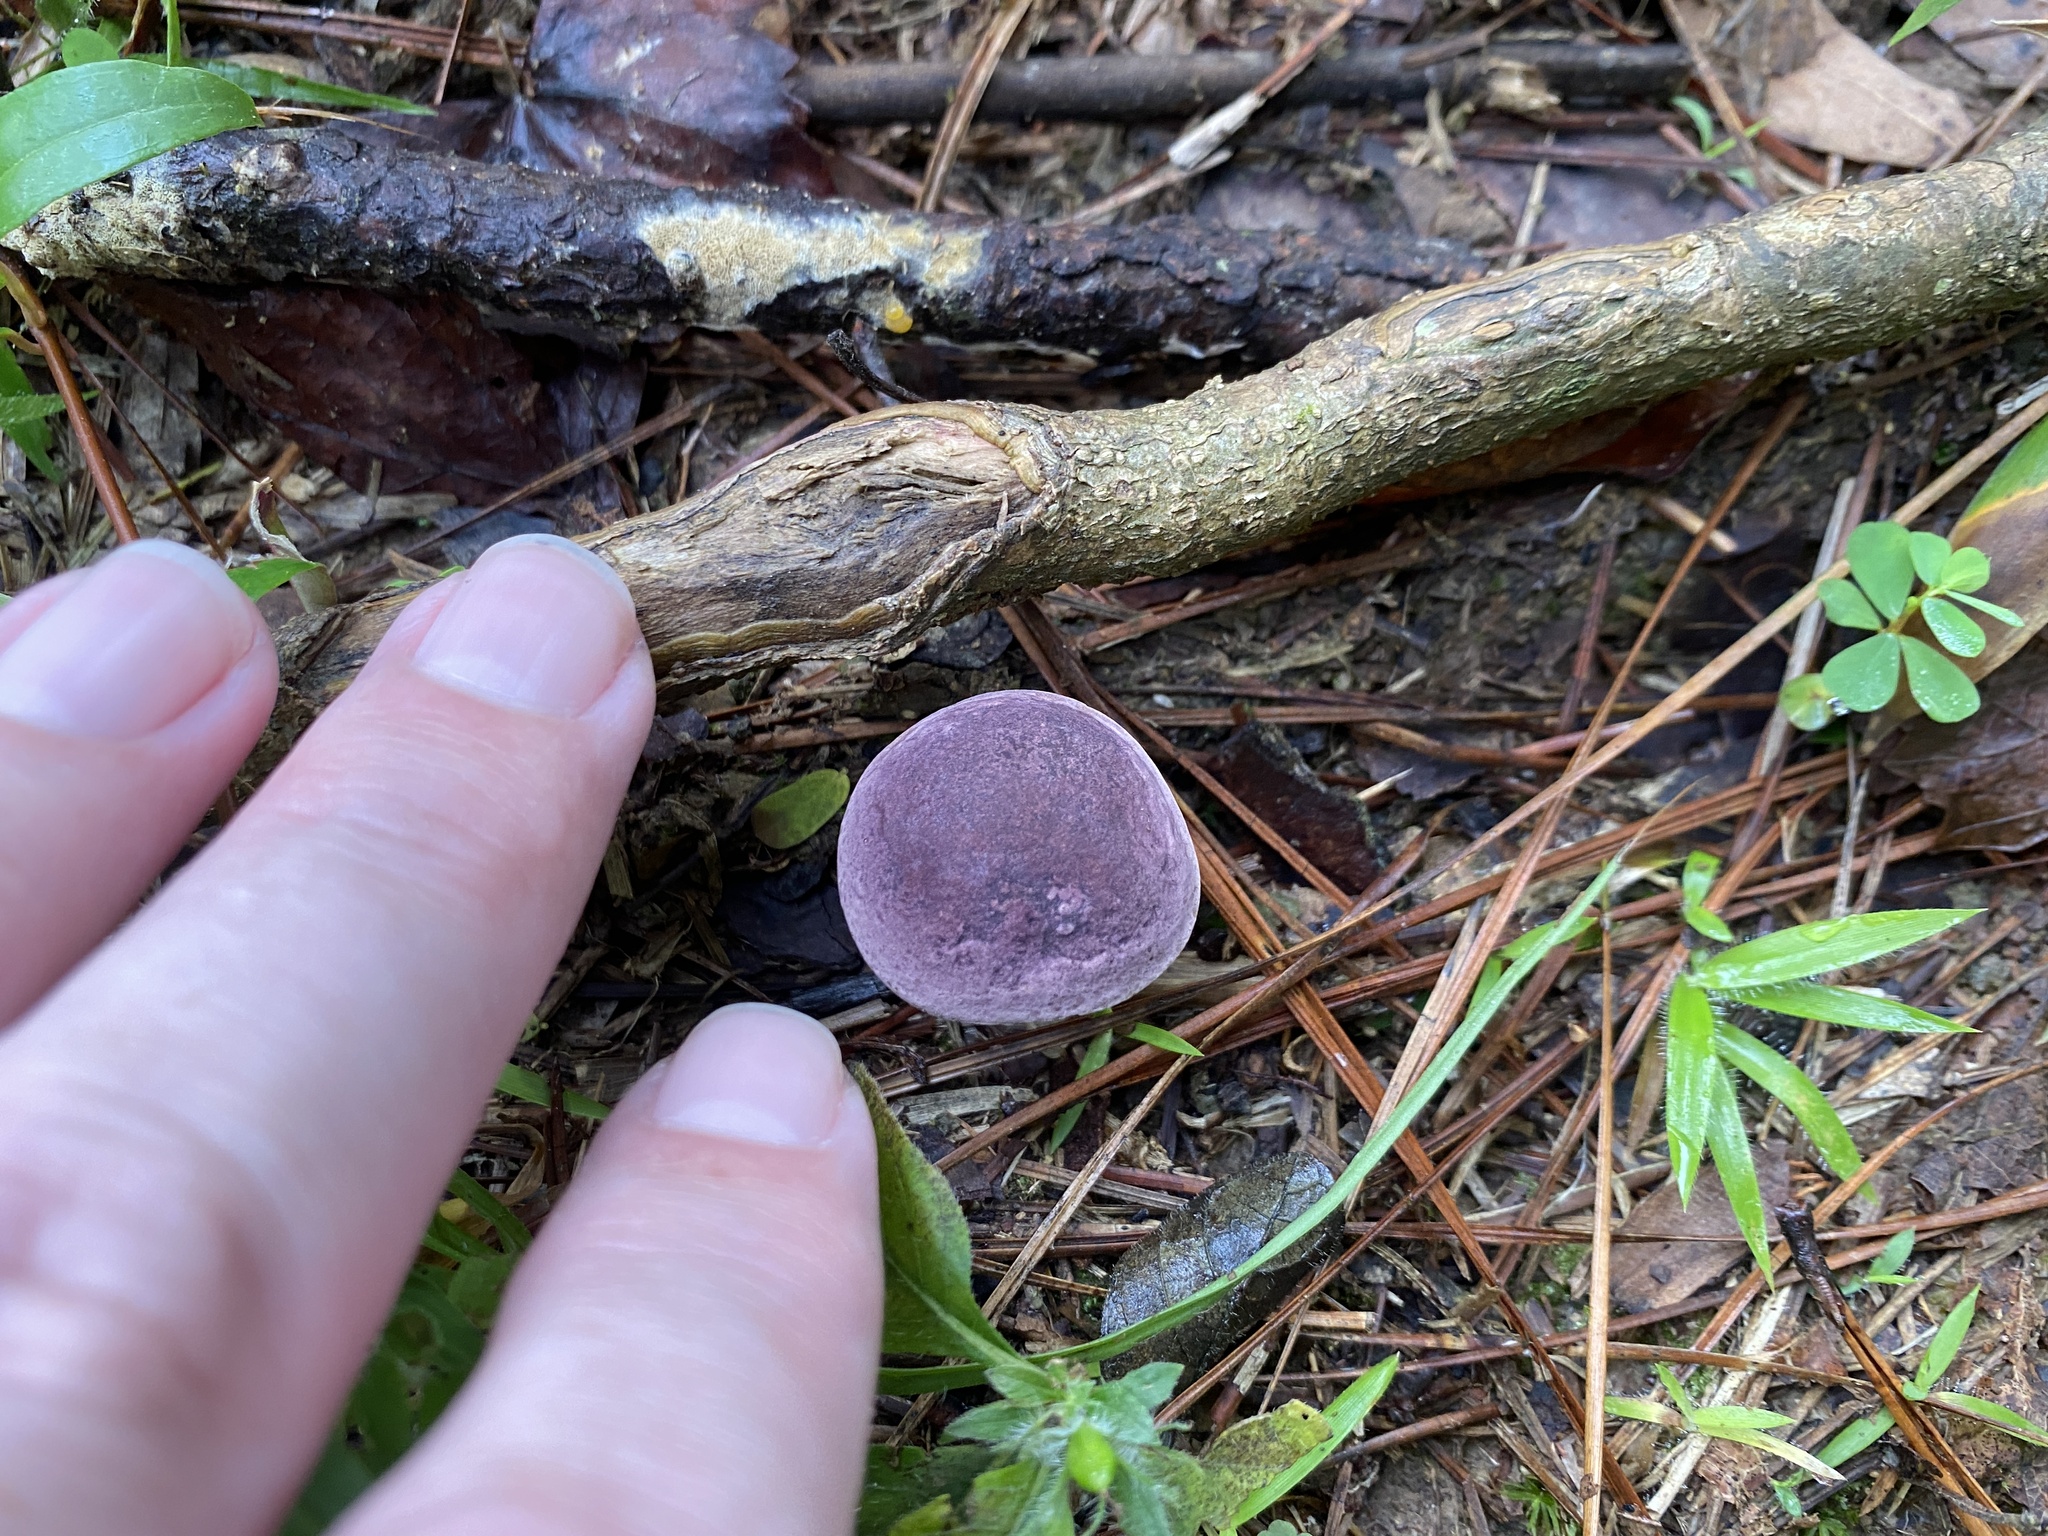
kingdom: Fungi
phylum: Basidiomycota
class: Agaricomycetes
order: Boletales
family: Boletaceae
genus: Tylopilus
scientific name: Tylopilus williamsii
